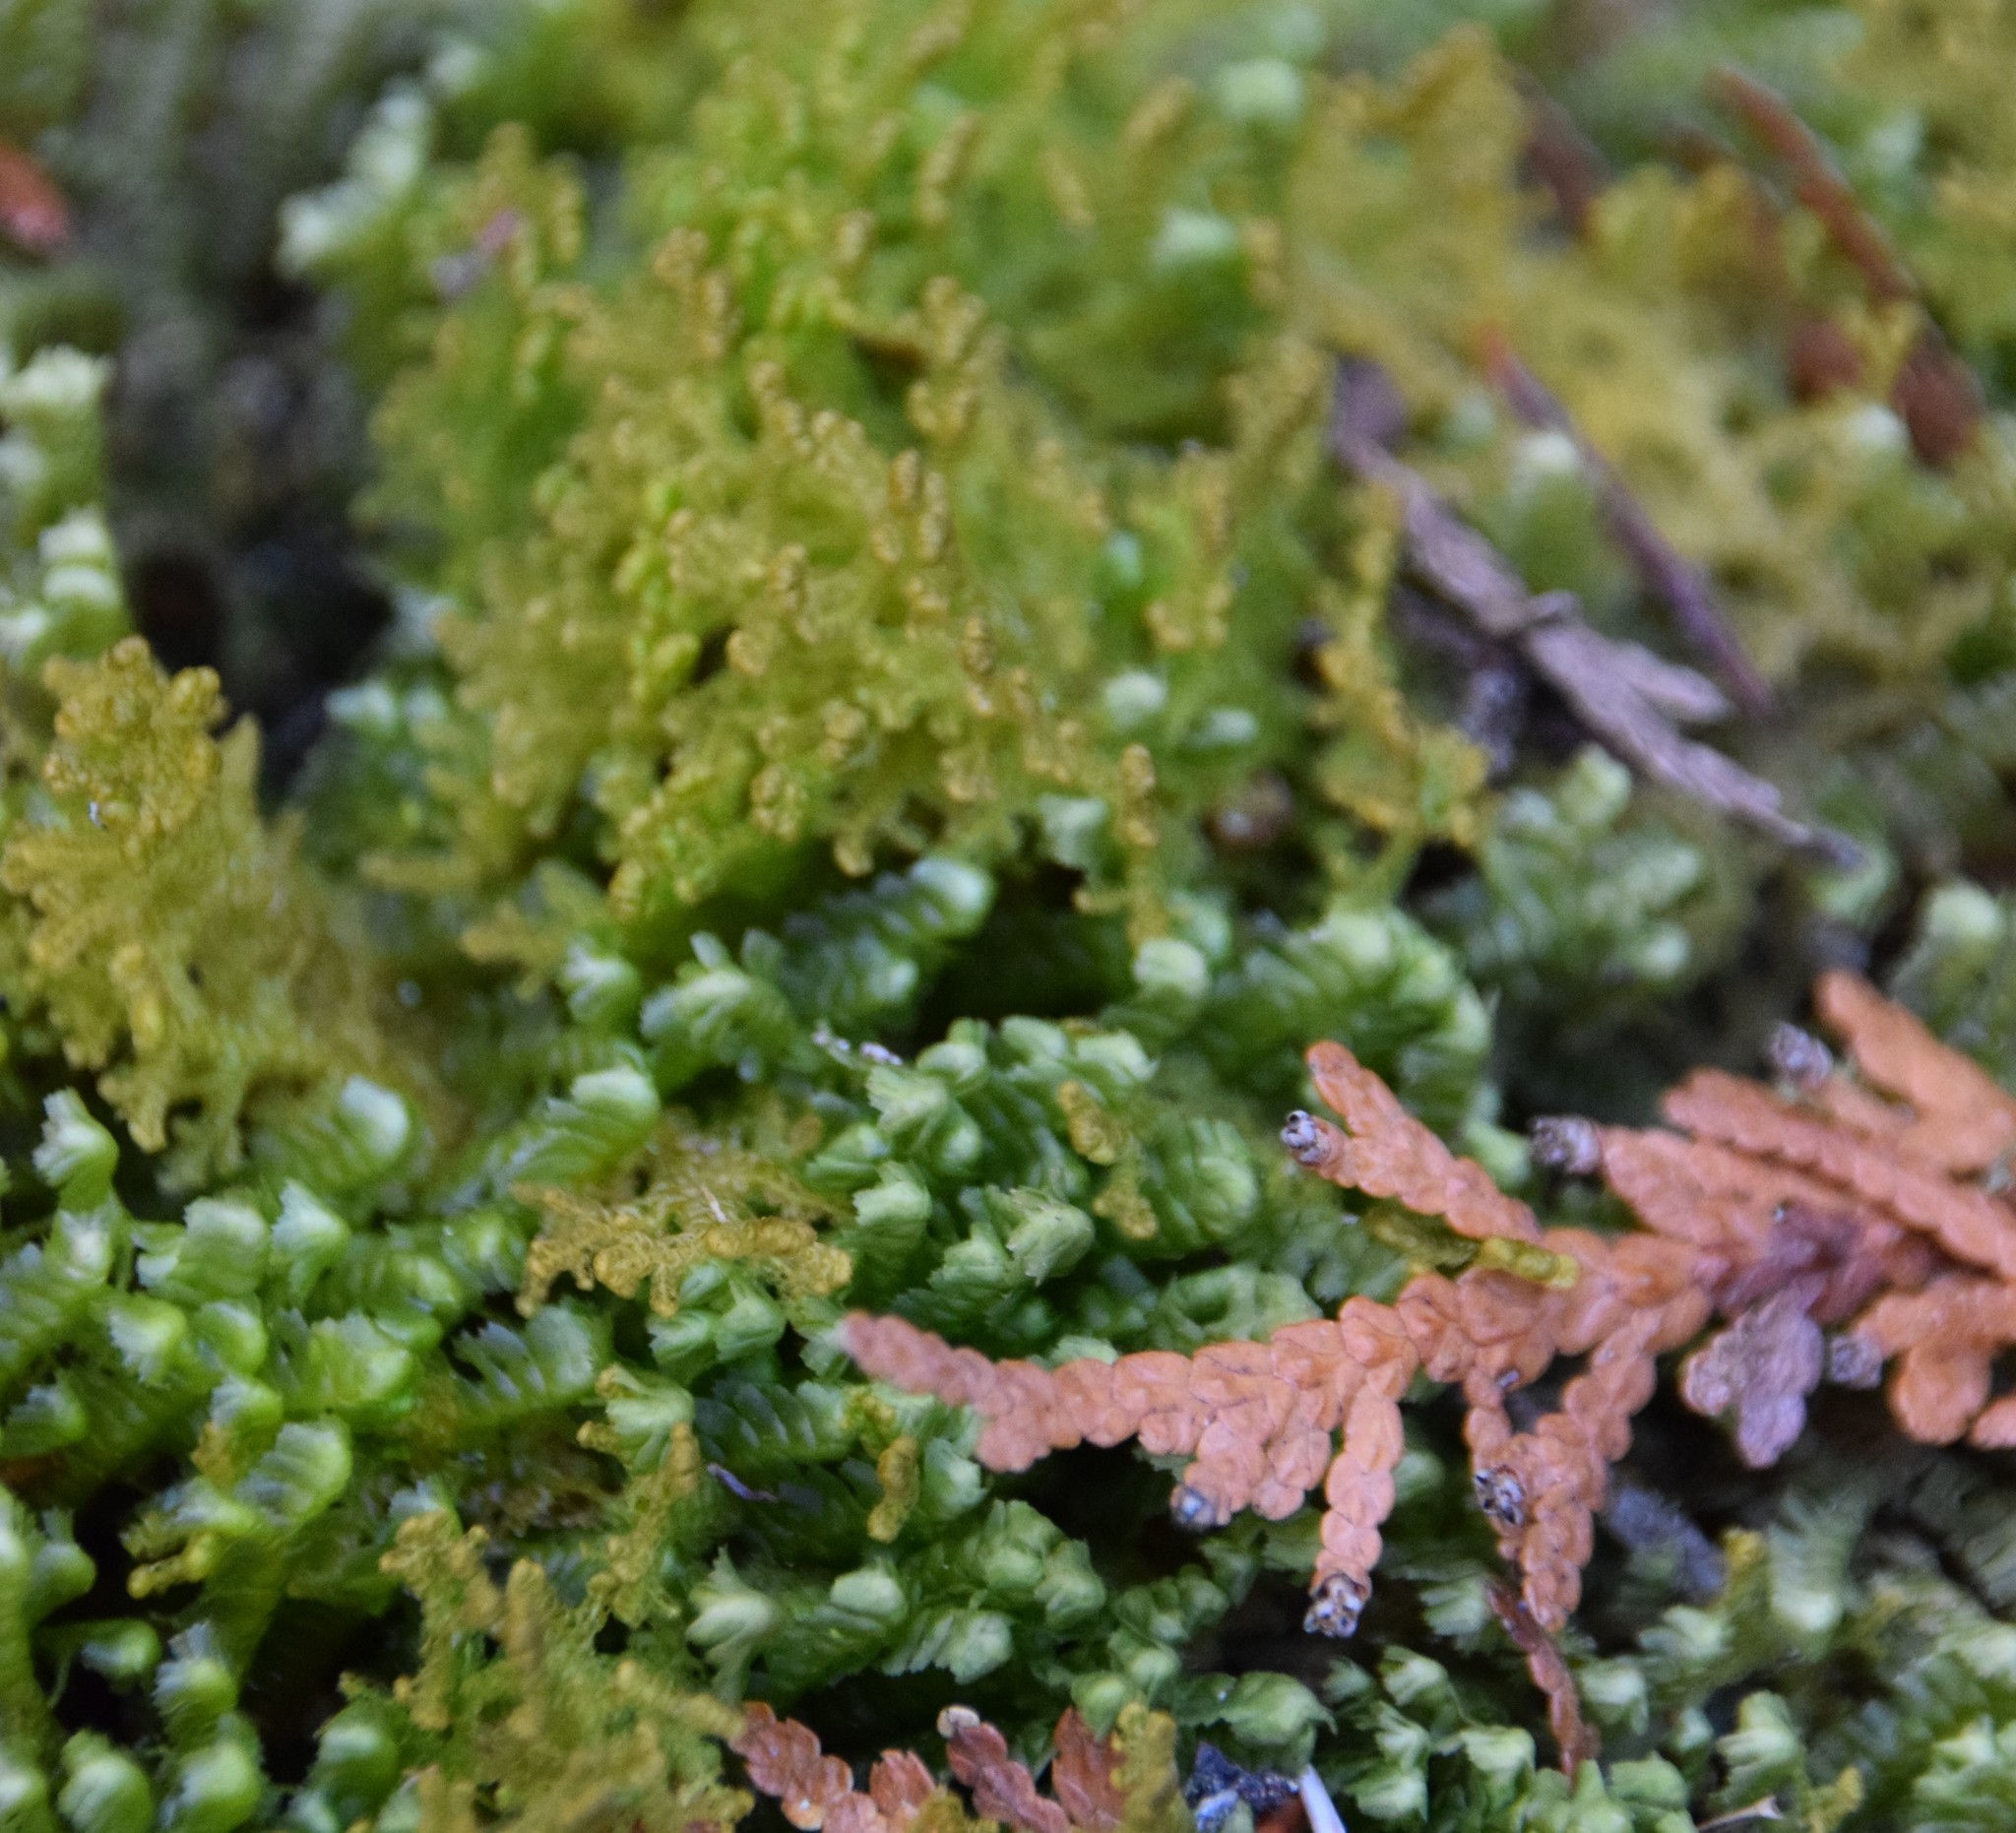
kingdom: Plantae
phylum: Marchantiophyta
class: Jungermanniopsida
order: Ptilidiales
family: Ptilidiaceae
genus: Ptilidium
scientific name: Ptilidium ciliare
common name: Ciliate fringewort
